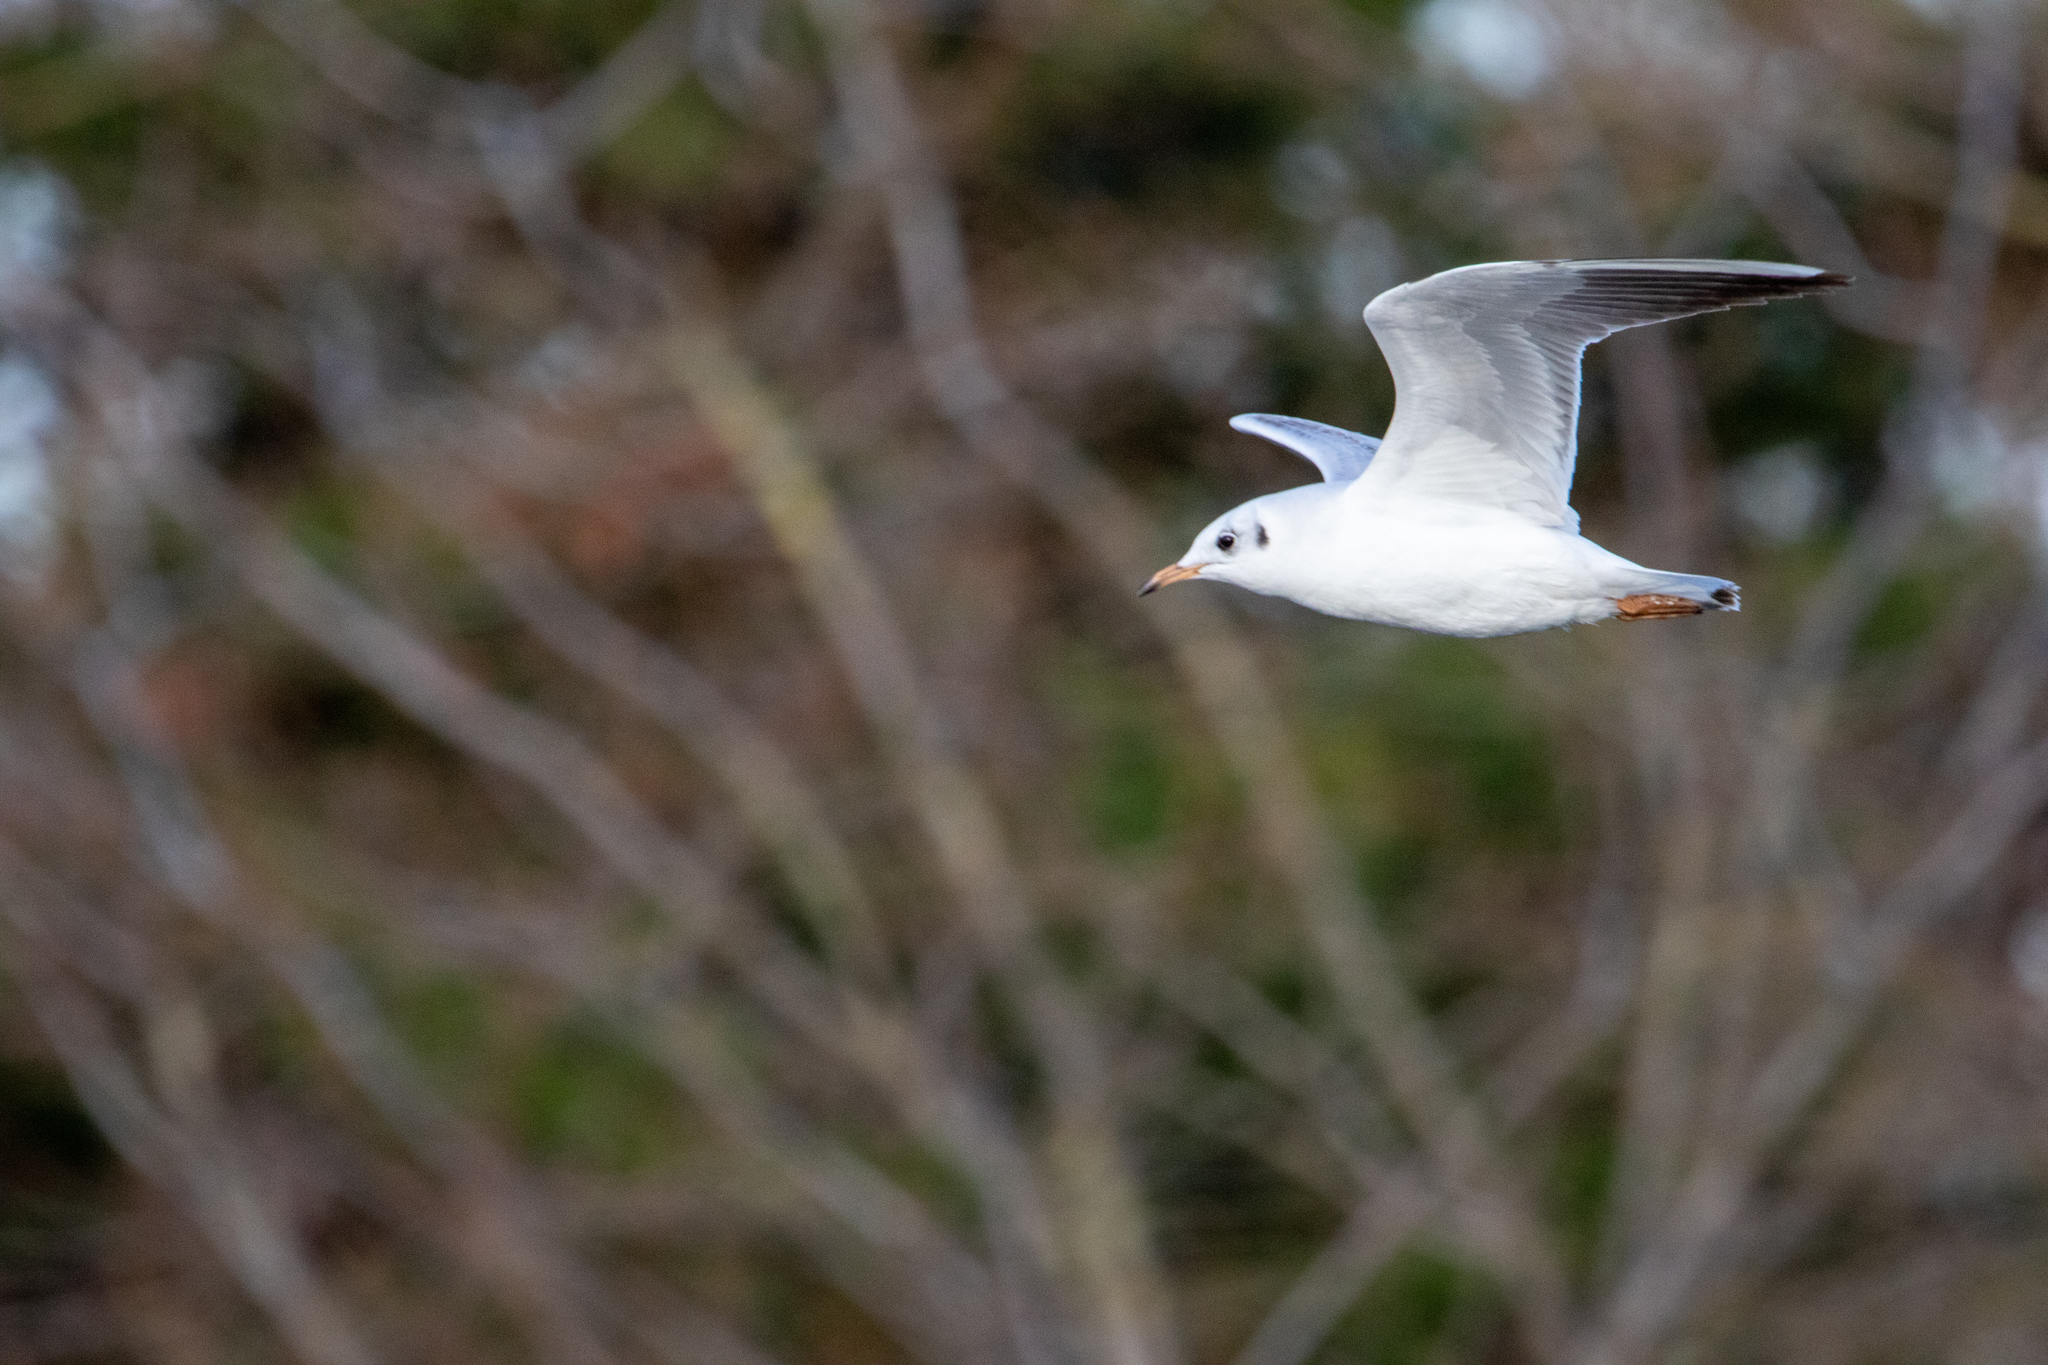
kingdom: Animalia
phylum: Chordata
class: Aves
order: Charadriiformes
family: Laridae
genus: Chroicocephalus
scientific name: Chroicocephalus ridibundus
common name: Black-headed gull
